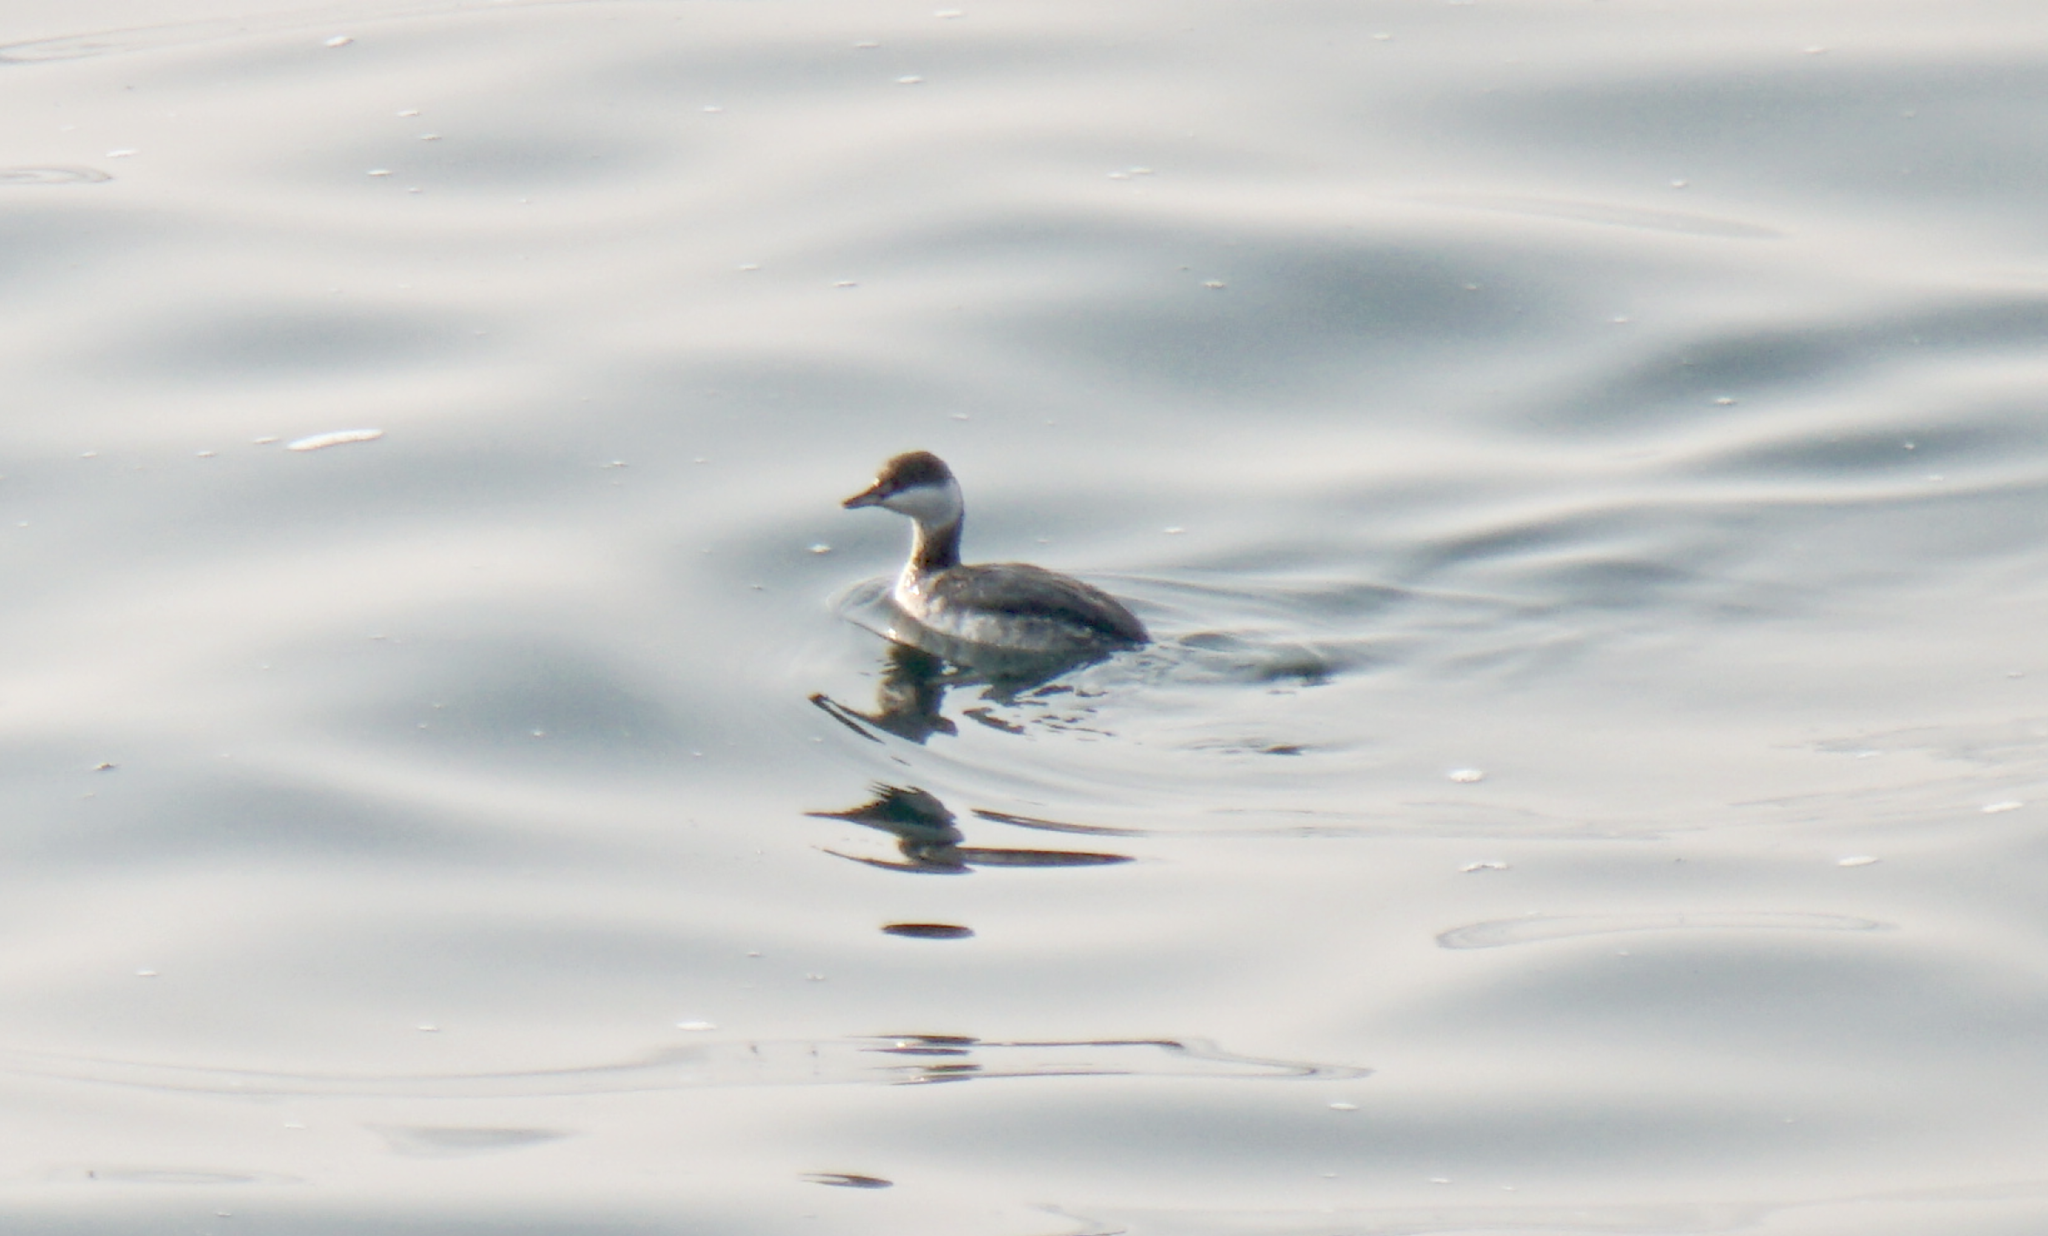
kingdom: Animalia
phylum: Chordata
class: Aves
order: Podicipediformes
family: Podicipedidae
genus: Podiceps
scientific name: Podiceps auritus
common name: Horned grebe
